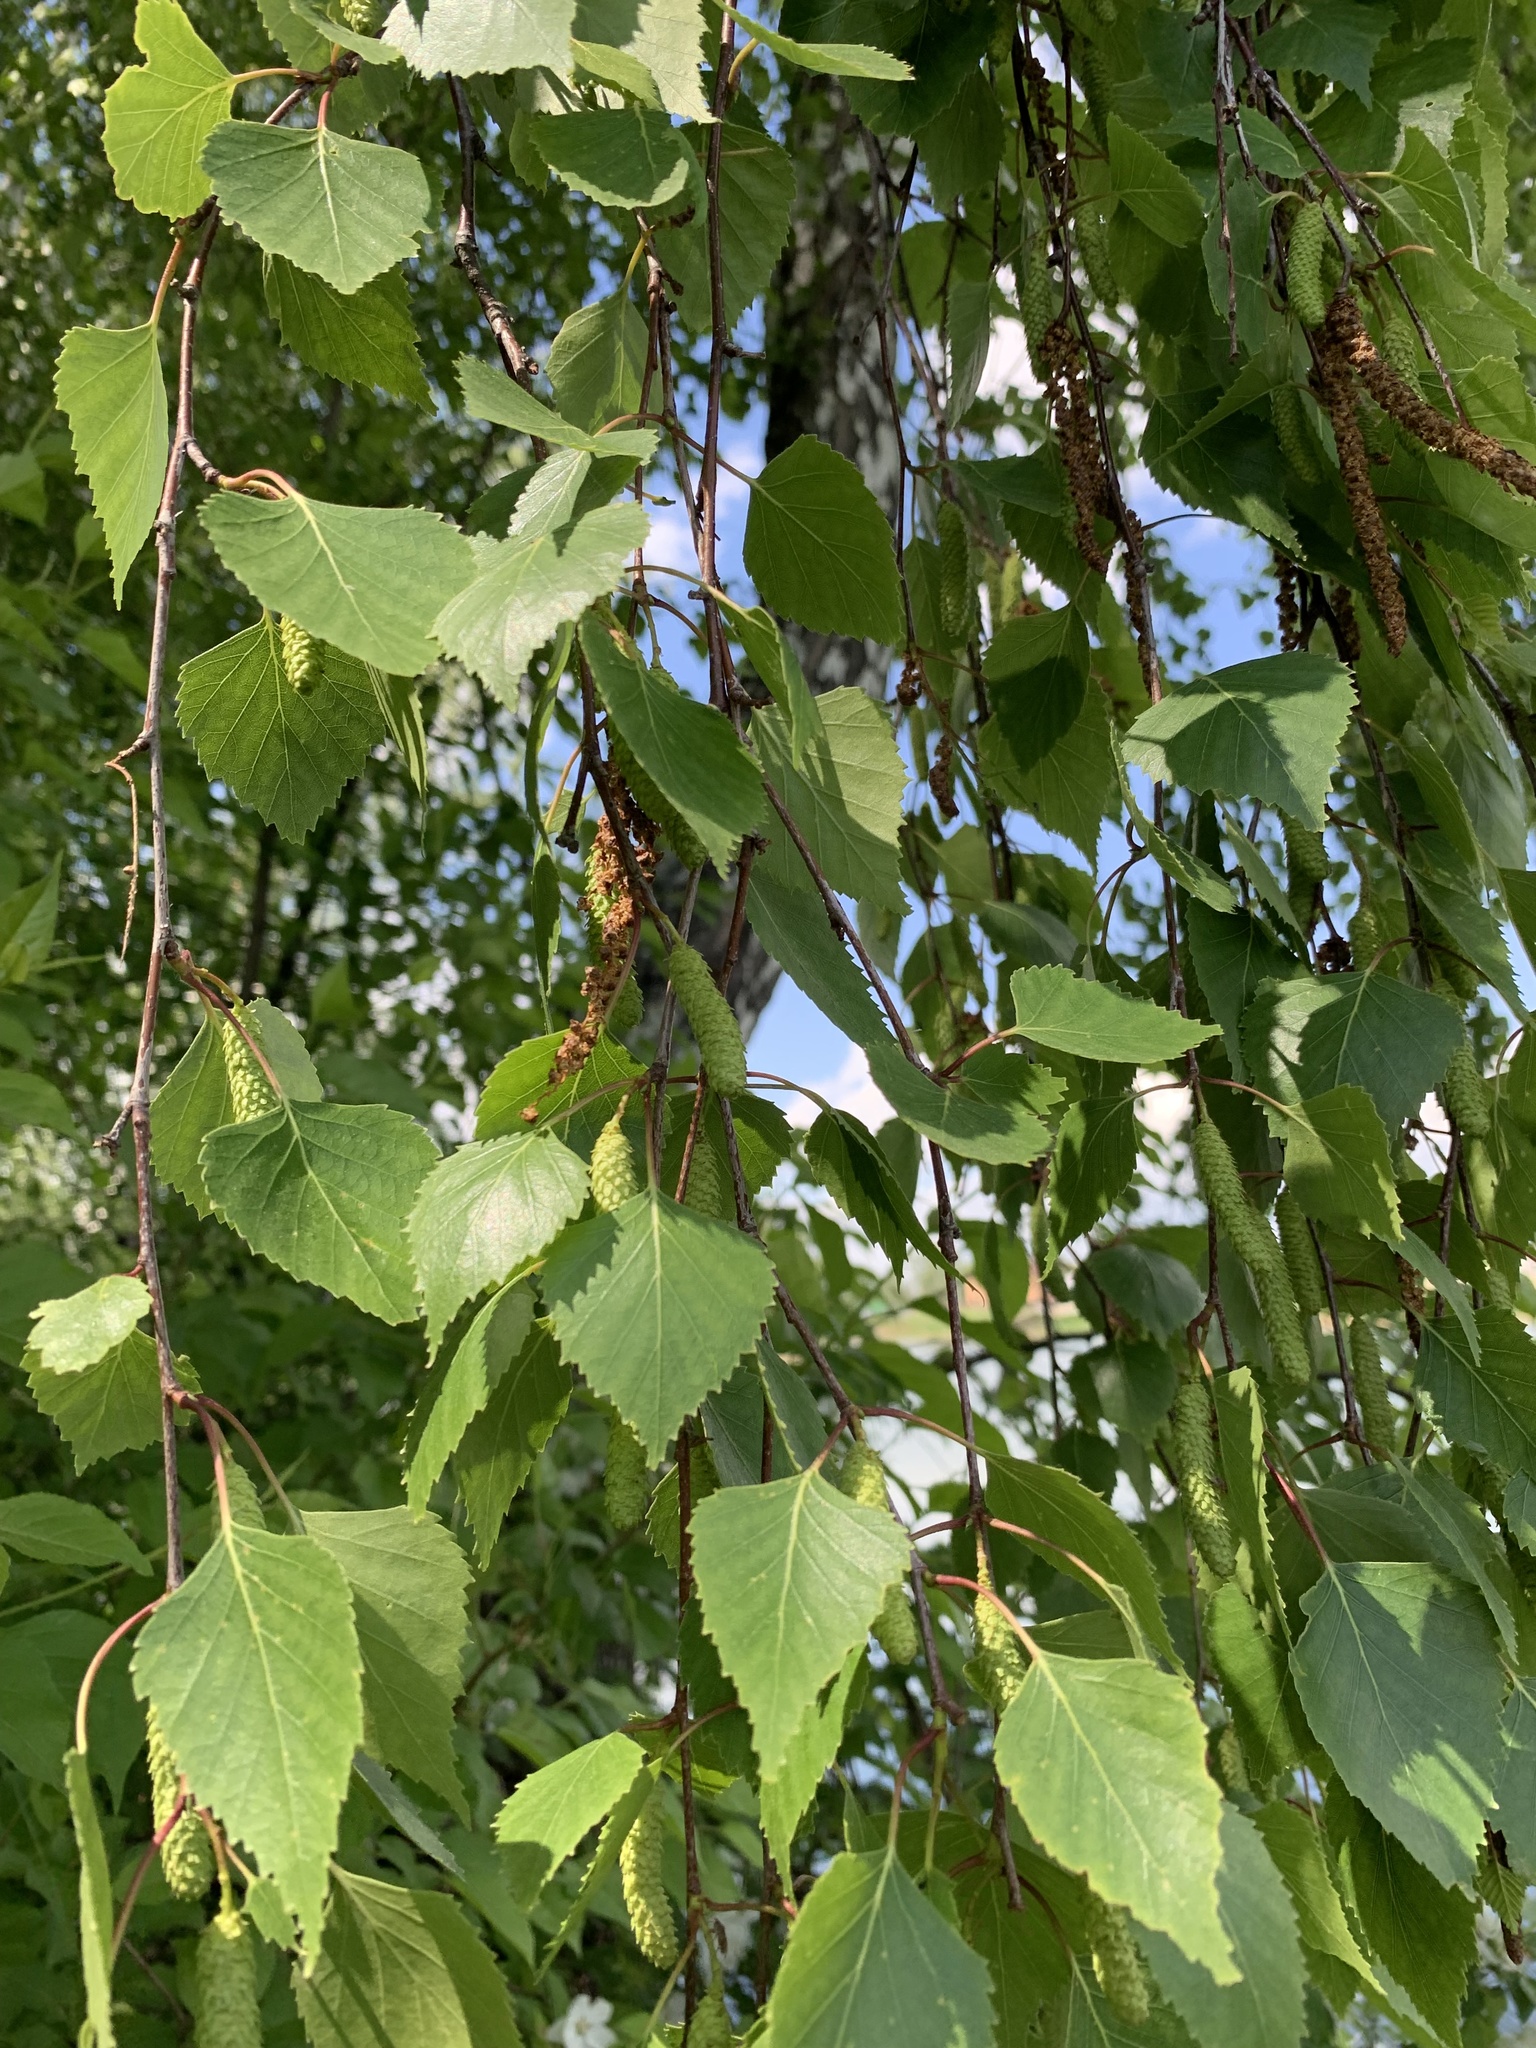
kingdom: Plantae
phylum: Tracheophyta
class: Magnoliopsida
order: Fagales
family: Betulaceae
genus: Betula
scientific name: Betula pendula
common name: Silver birch
